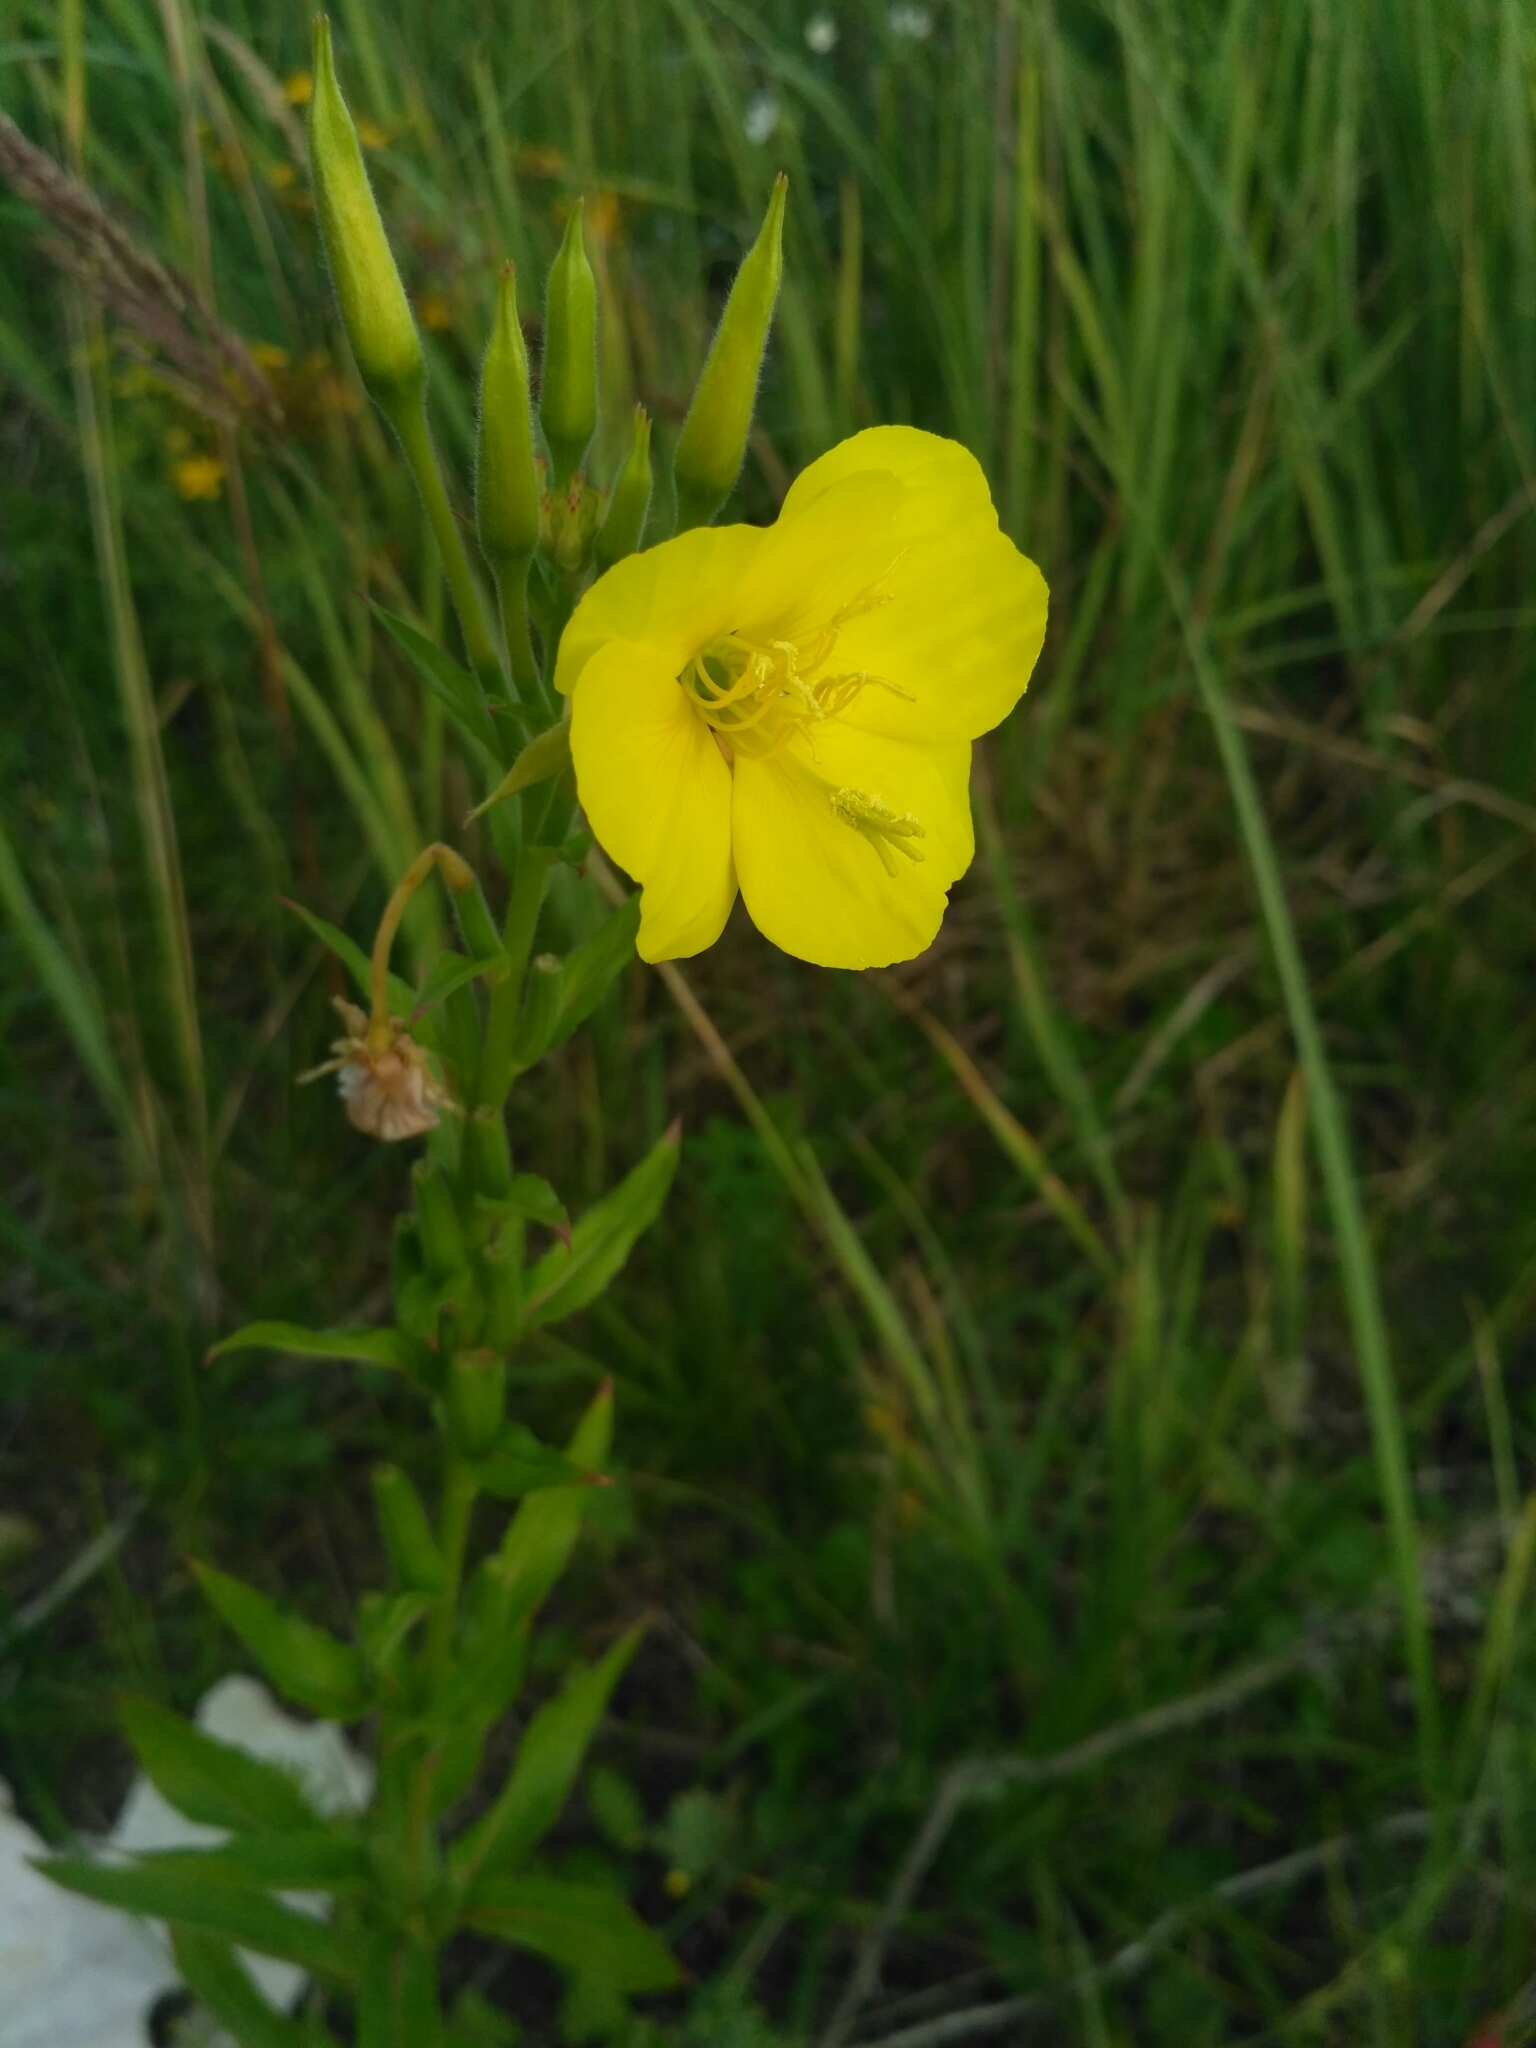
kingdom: Plantae
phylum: Tracheophyta
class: Magnoliopsida
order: Myrtales
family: Onagraceae
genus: Oenothera
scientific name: Oenothera biennis
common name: Common evening-primrose
